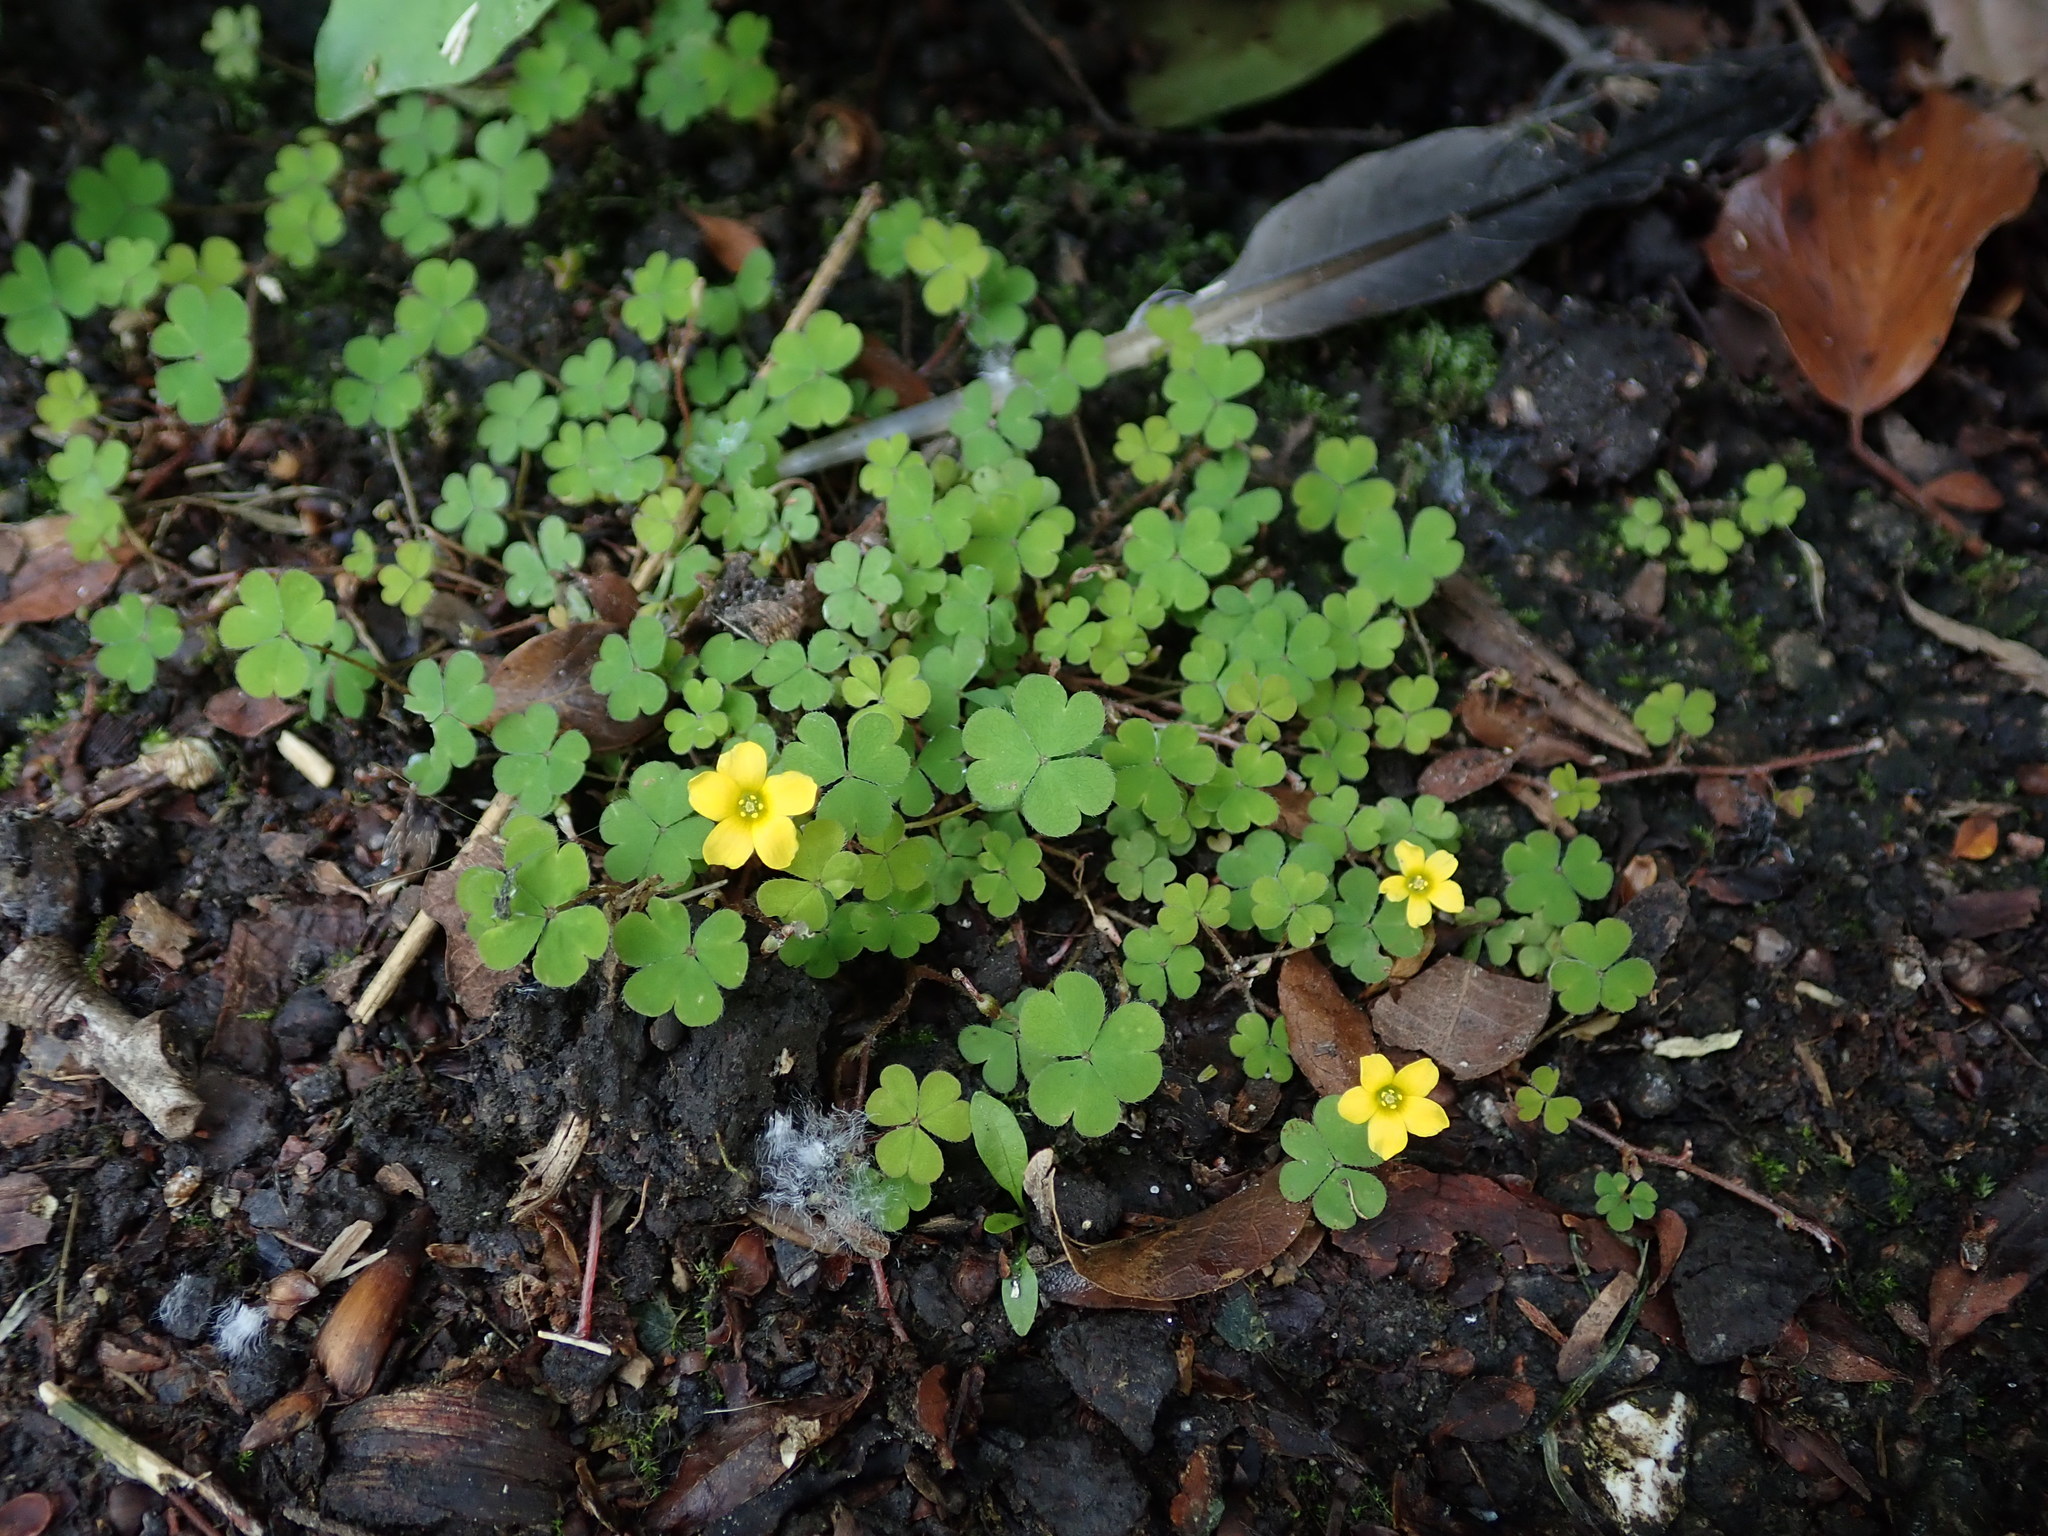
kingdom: Plantae
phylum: Tracheophyta
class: Magnoliopsida
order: Oxalidales
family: Oxalidaceae
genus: Oxalis
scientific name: Oxalis exilis
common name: Least yellow-sorrel
